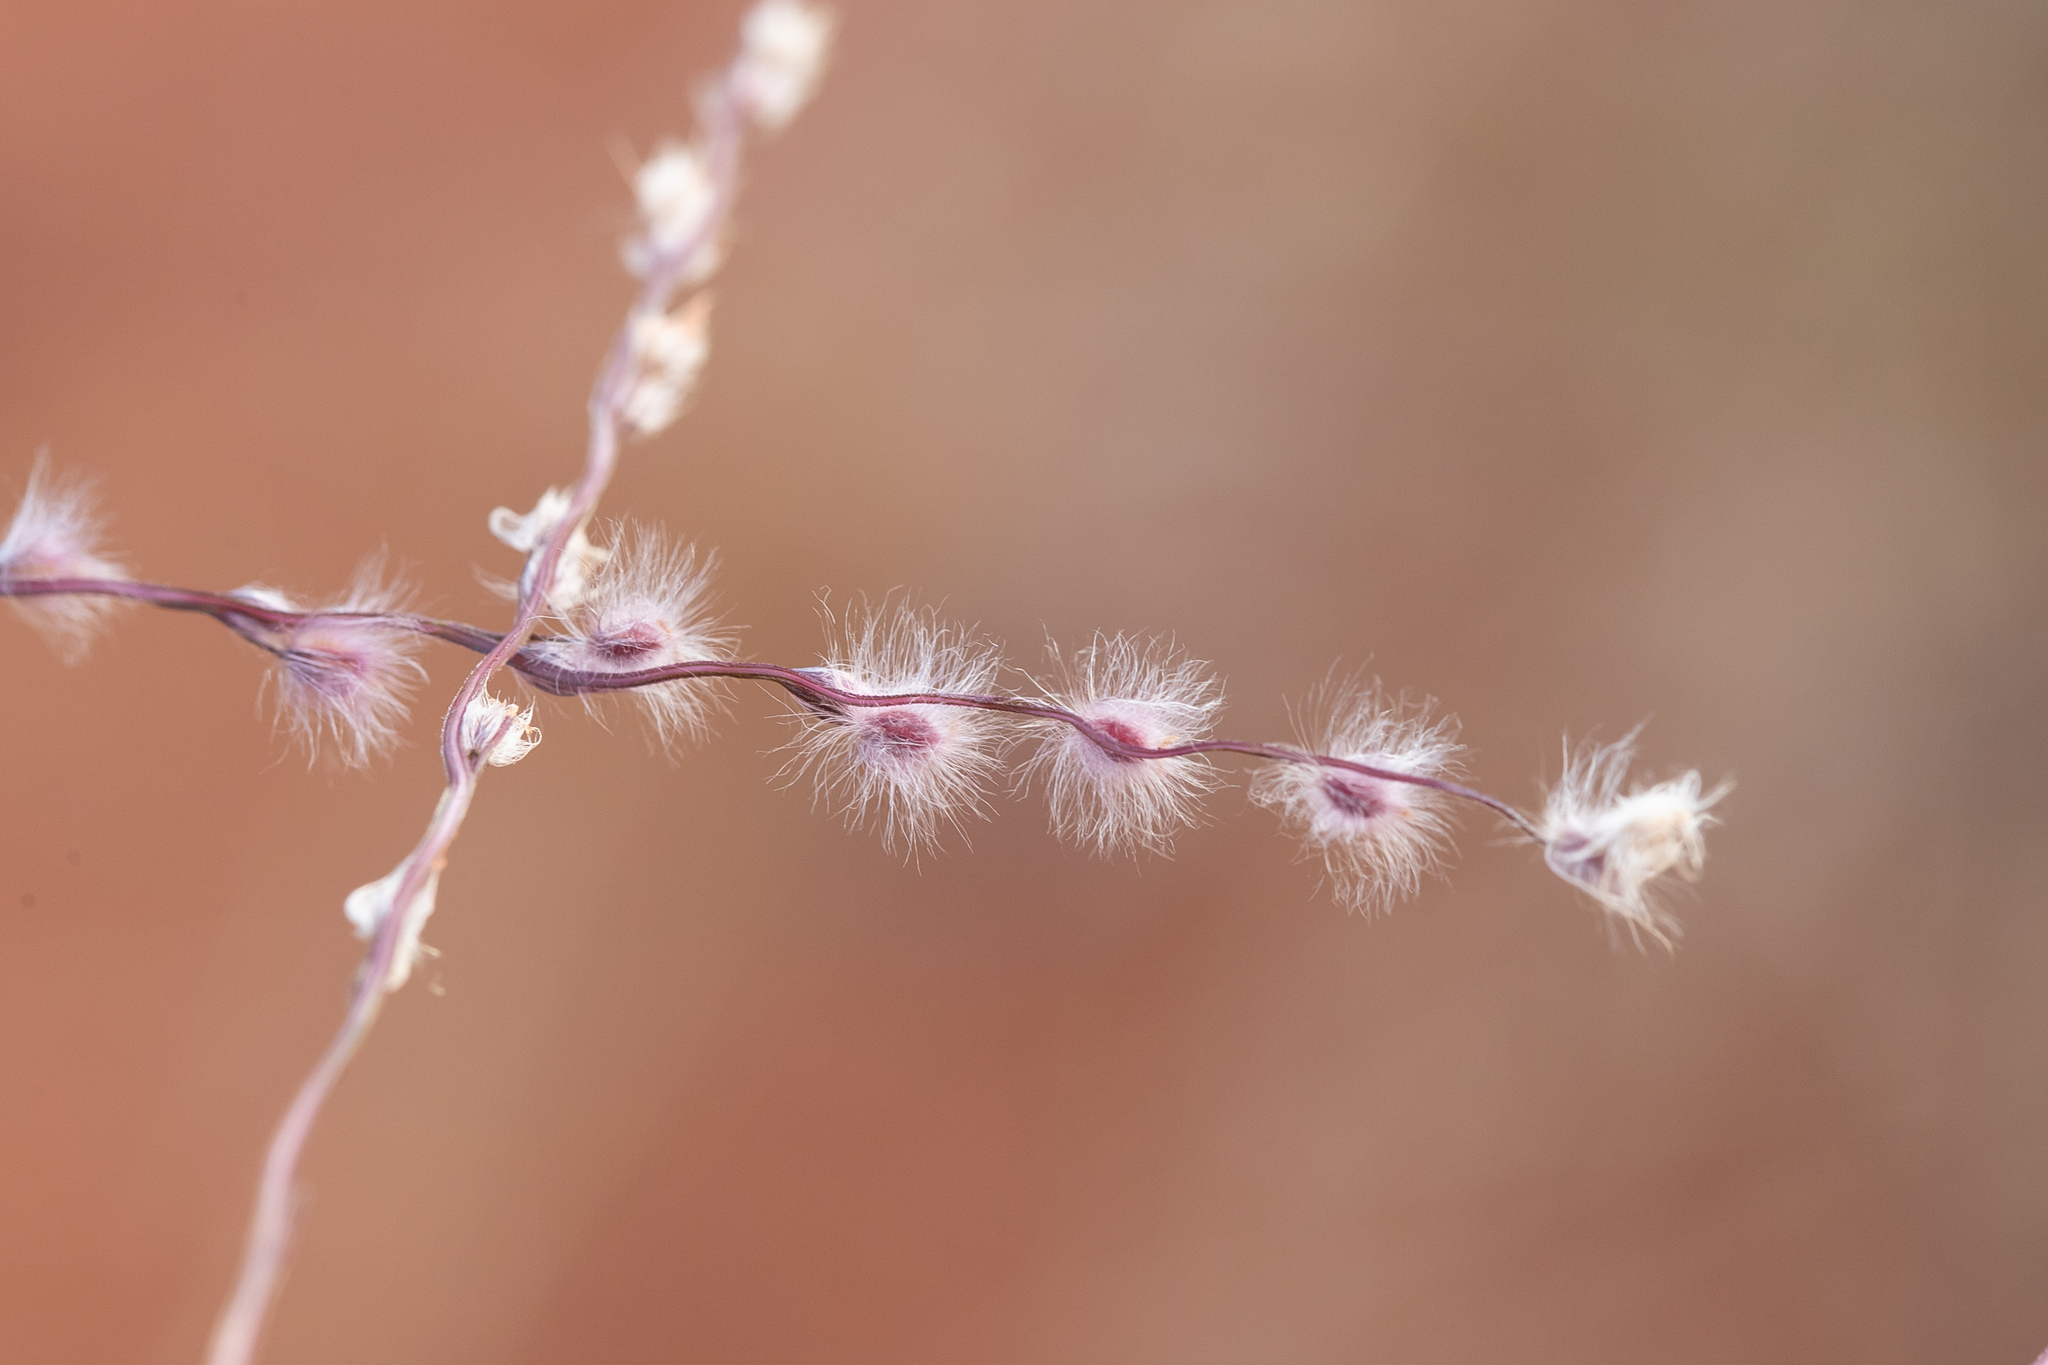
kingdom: Plantae
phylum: Tracheophyta
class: Liliopsida
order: Poales
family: Poaceae
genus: Digitaria
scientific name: Digitaria ammophila
